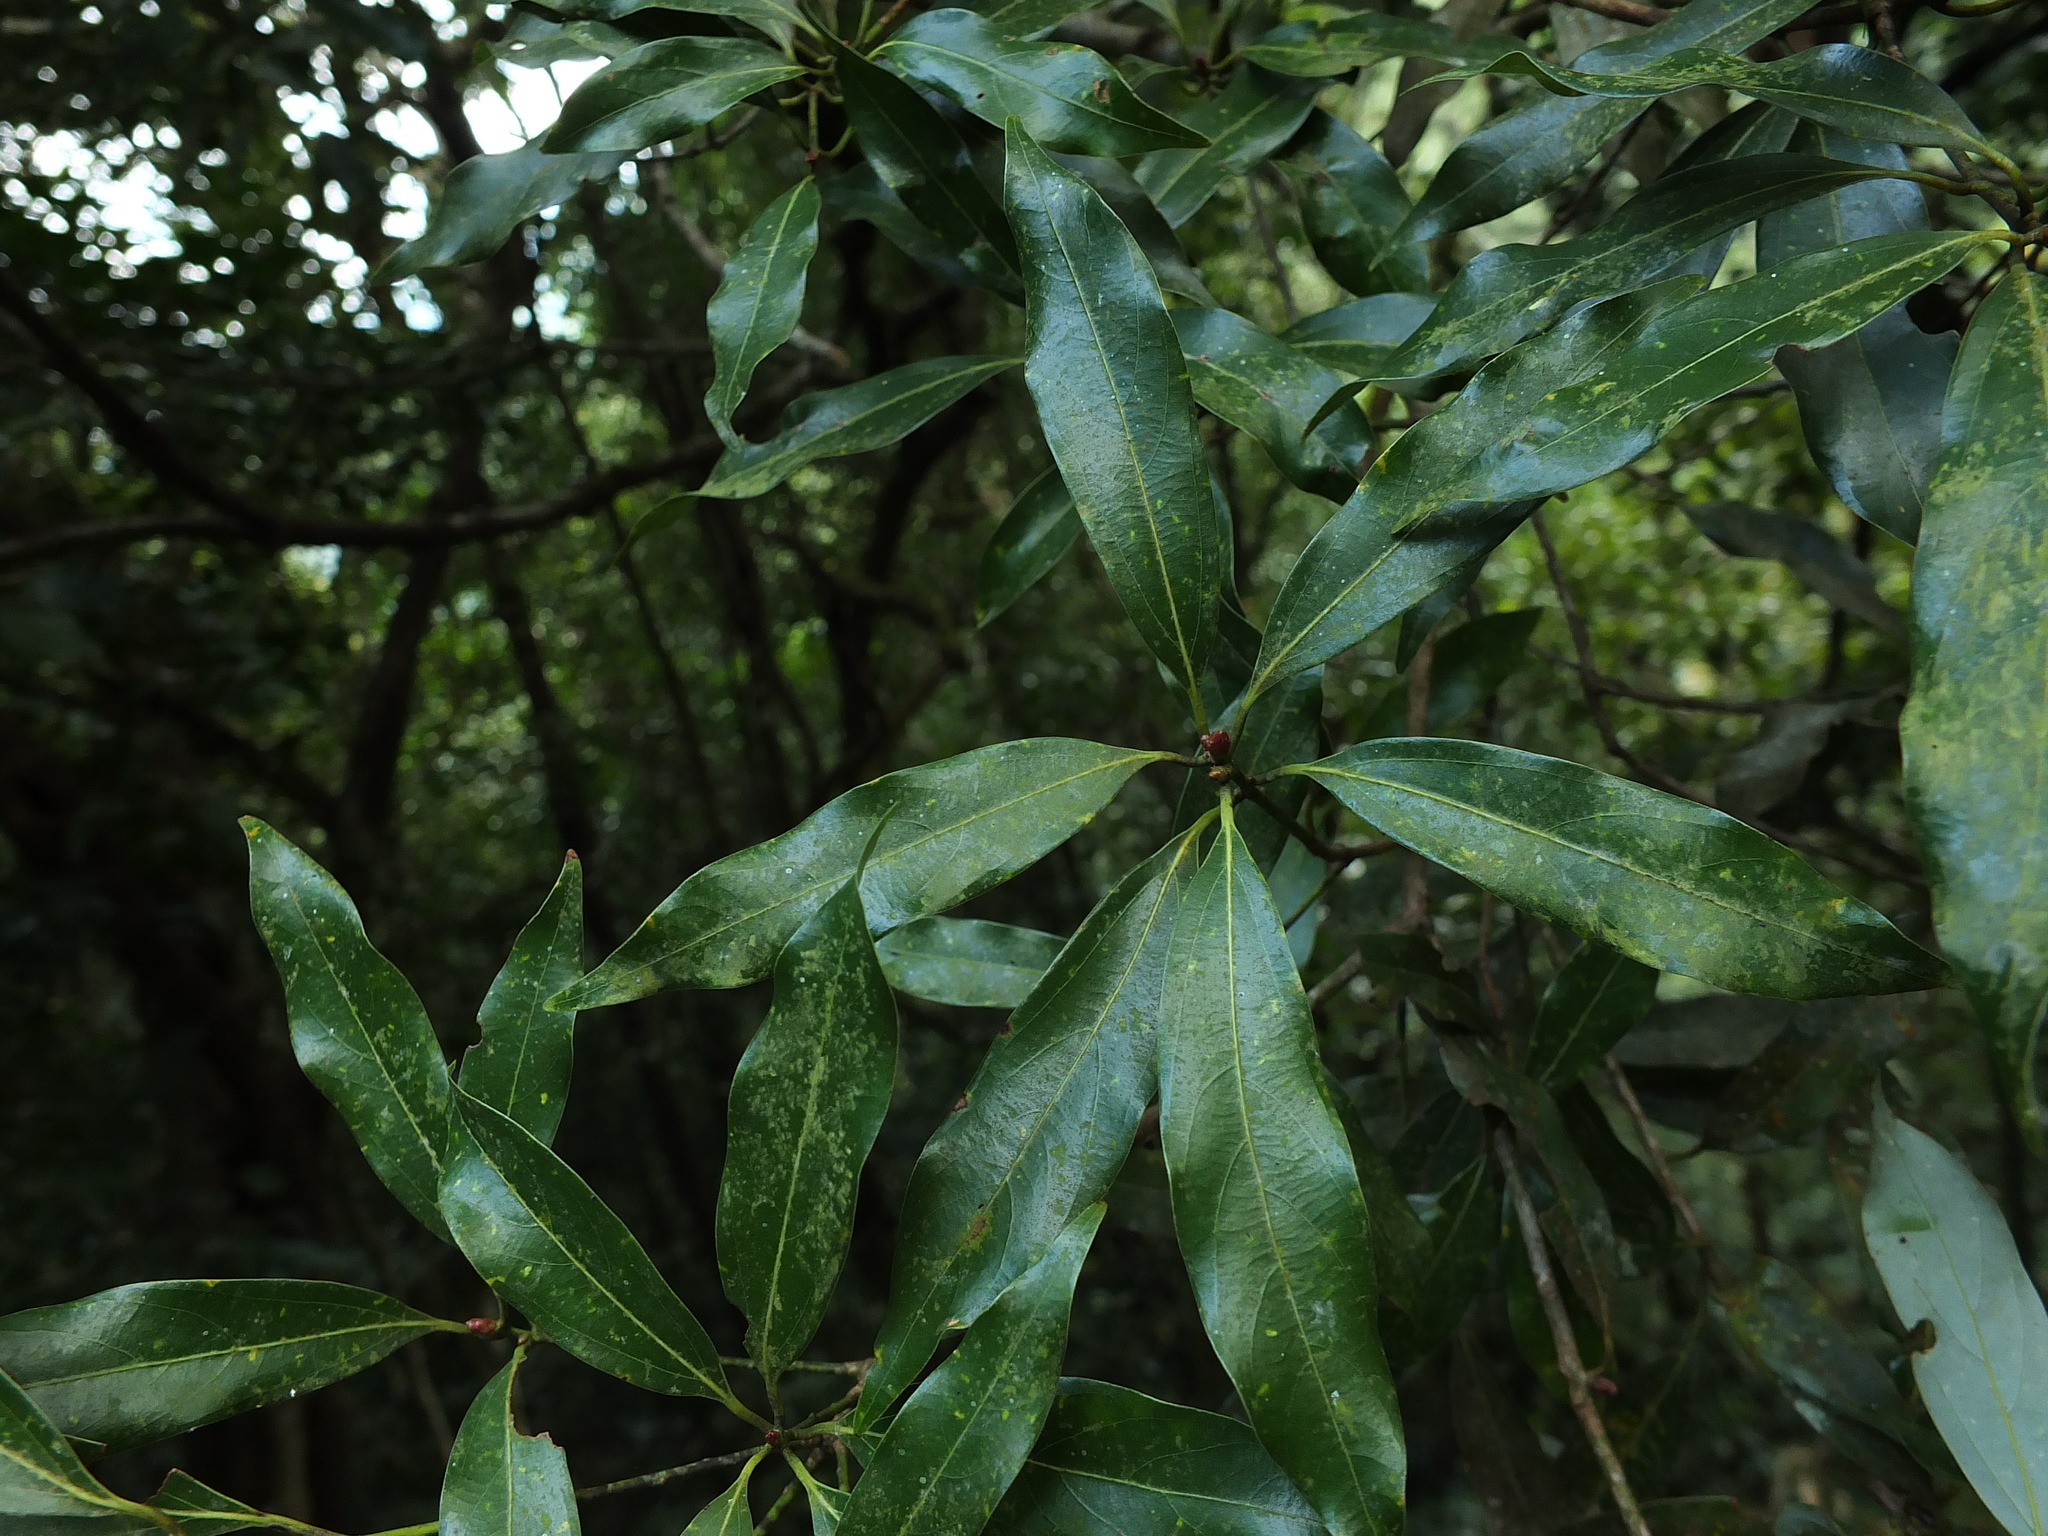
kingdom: Plantae
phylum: Tracheophyta
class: Magnoliopsida
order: Laurales
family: Lauraceae
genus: Neolitsea
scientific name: Neolitsea foliosa
